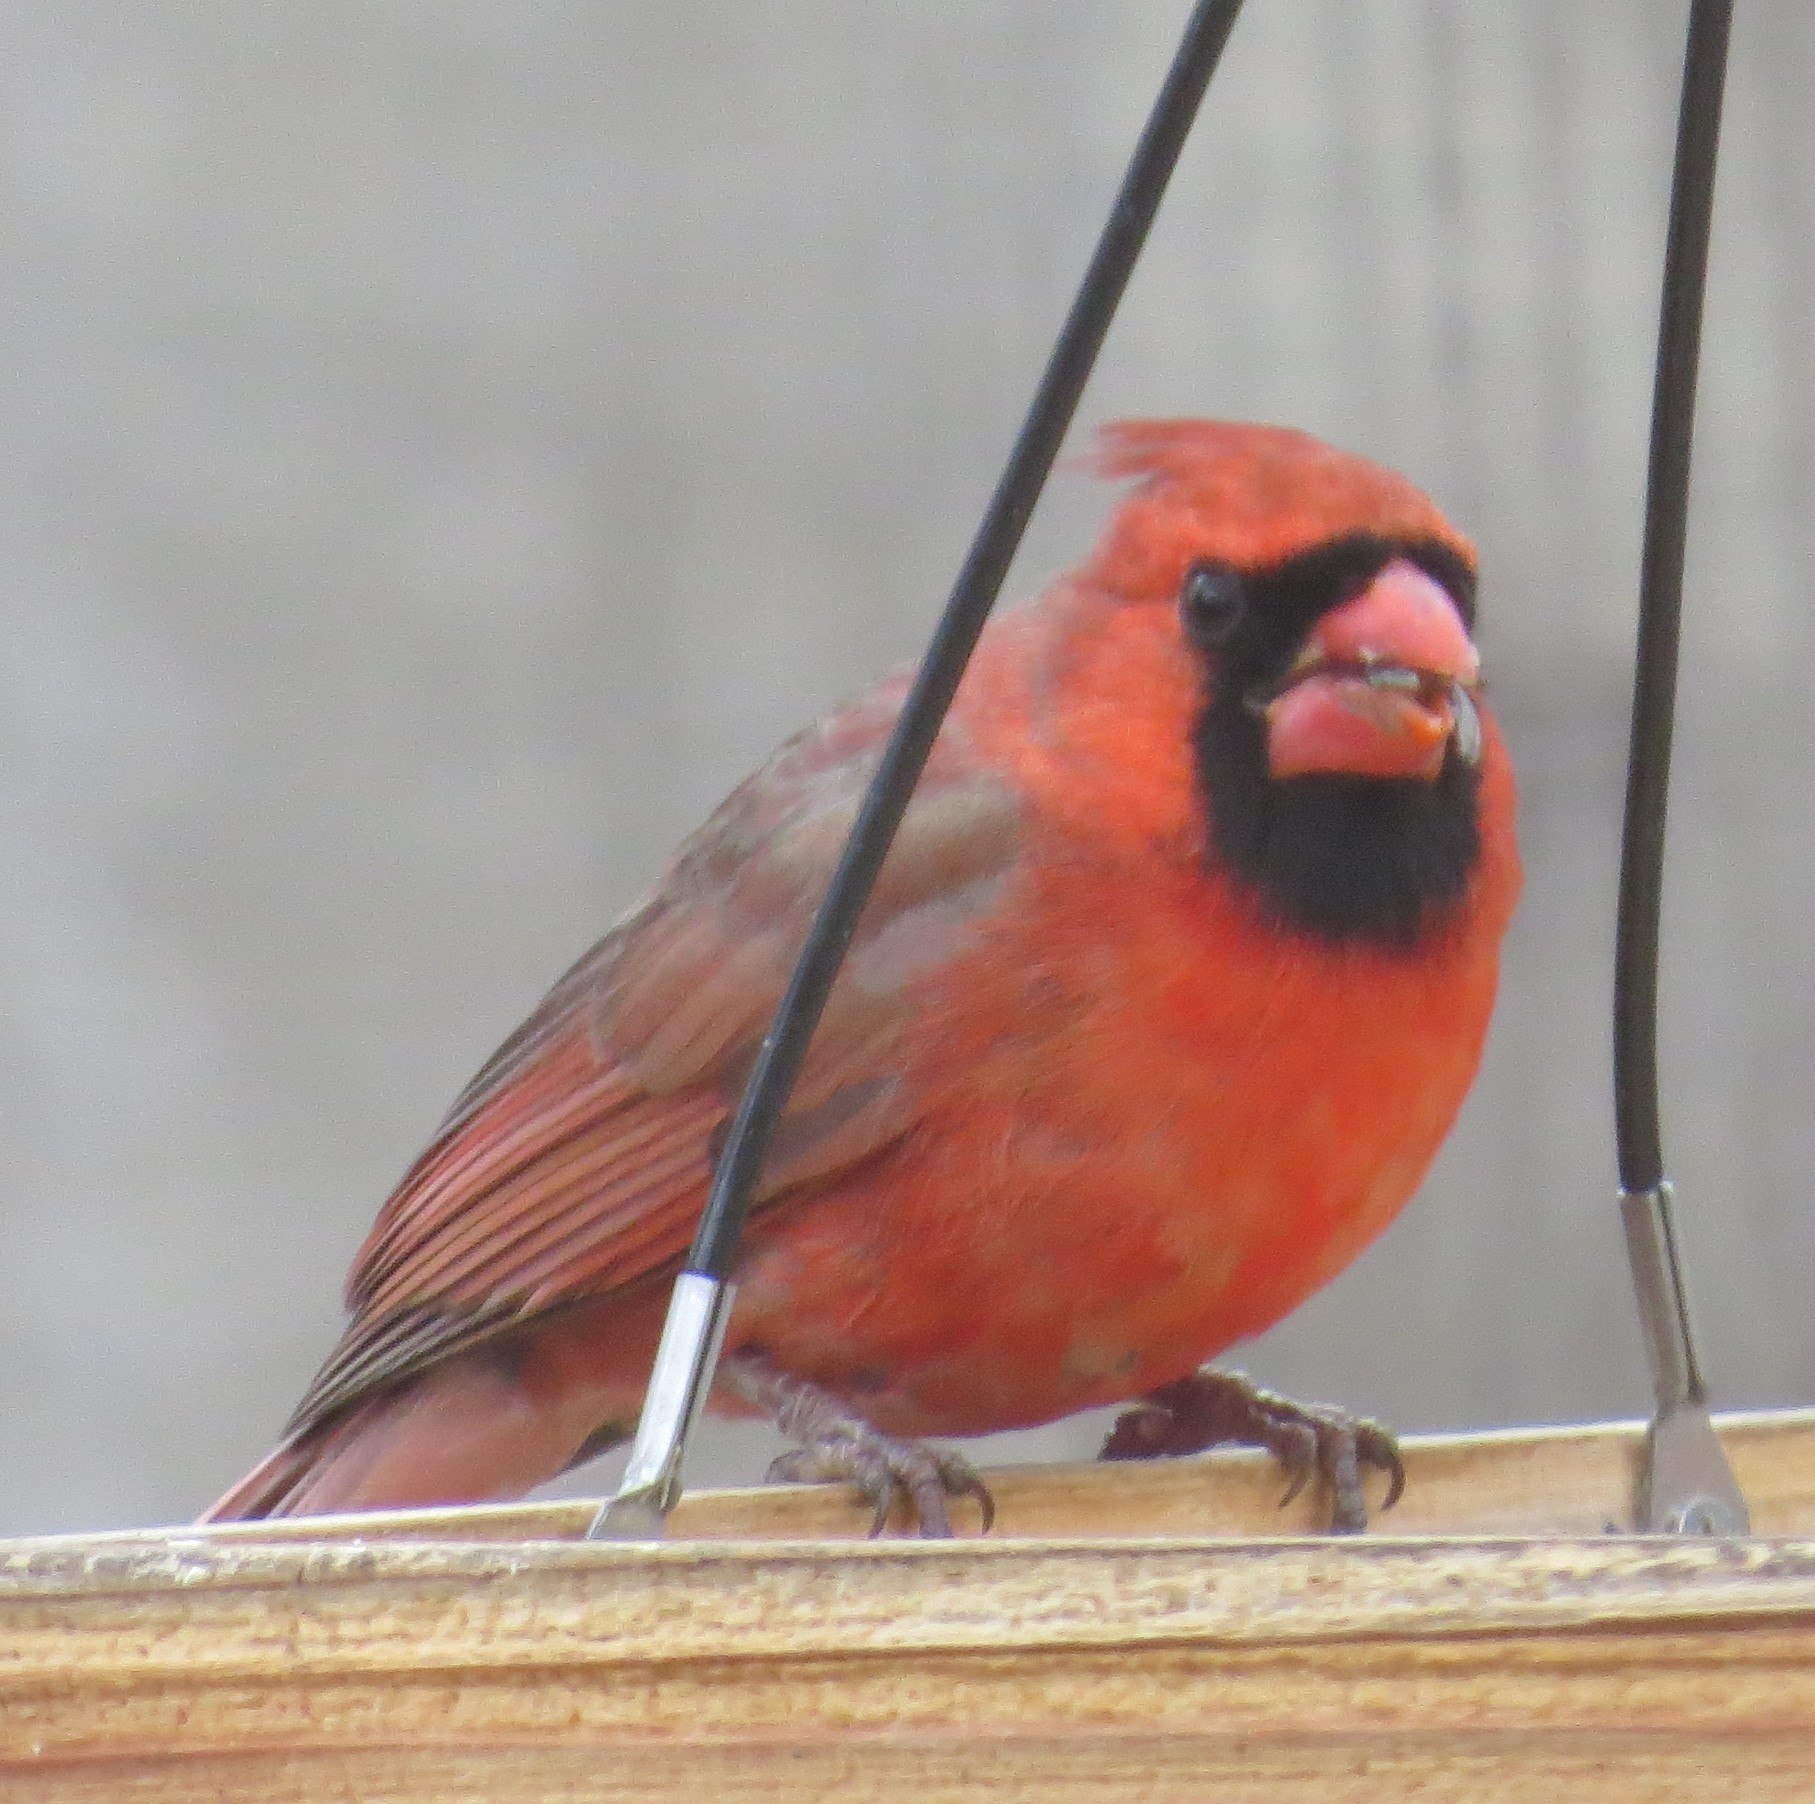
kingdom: Animalia
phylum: Chordata
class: Aves
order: Passeriformes
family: Cardinalidae
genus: Cardinalis
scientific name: Cardinalis cardinalis
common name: Northern cardinal
